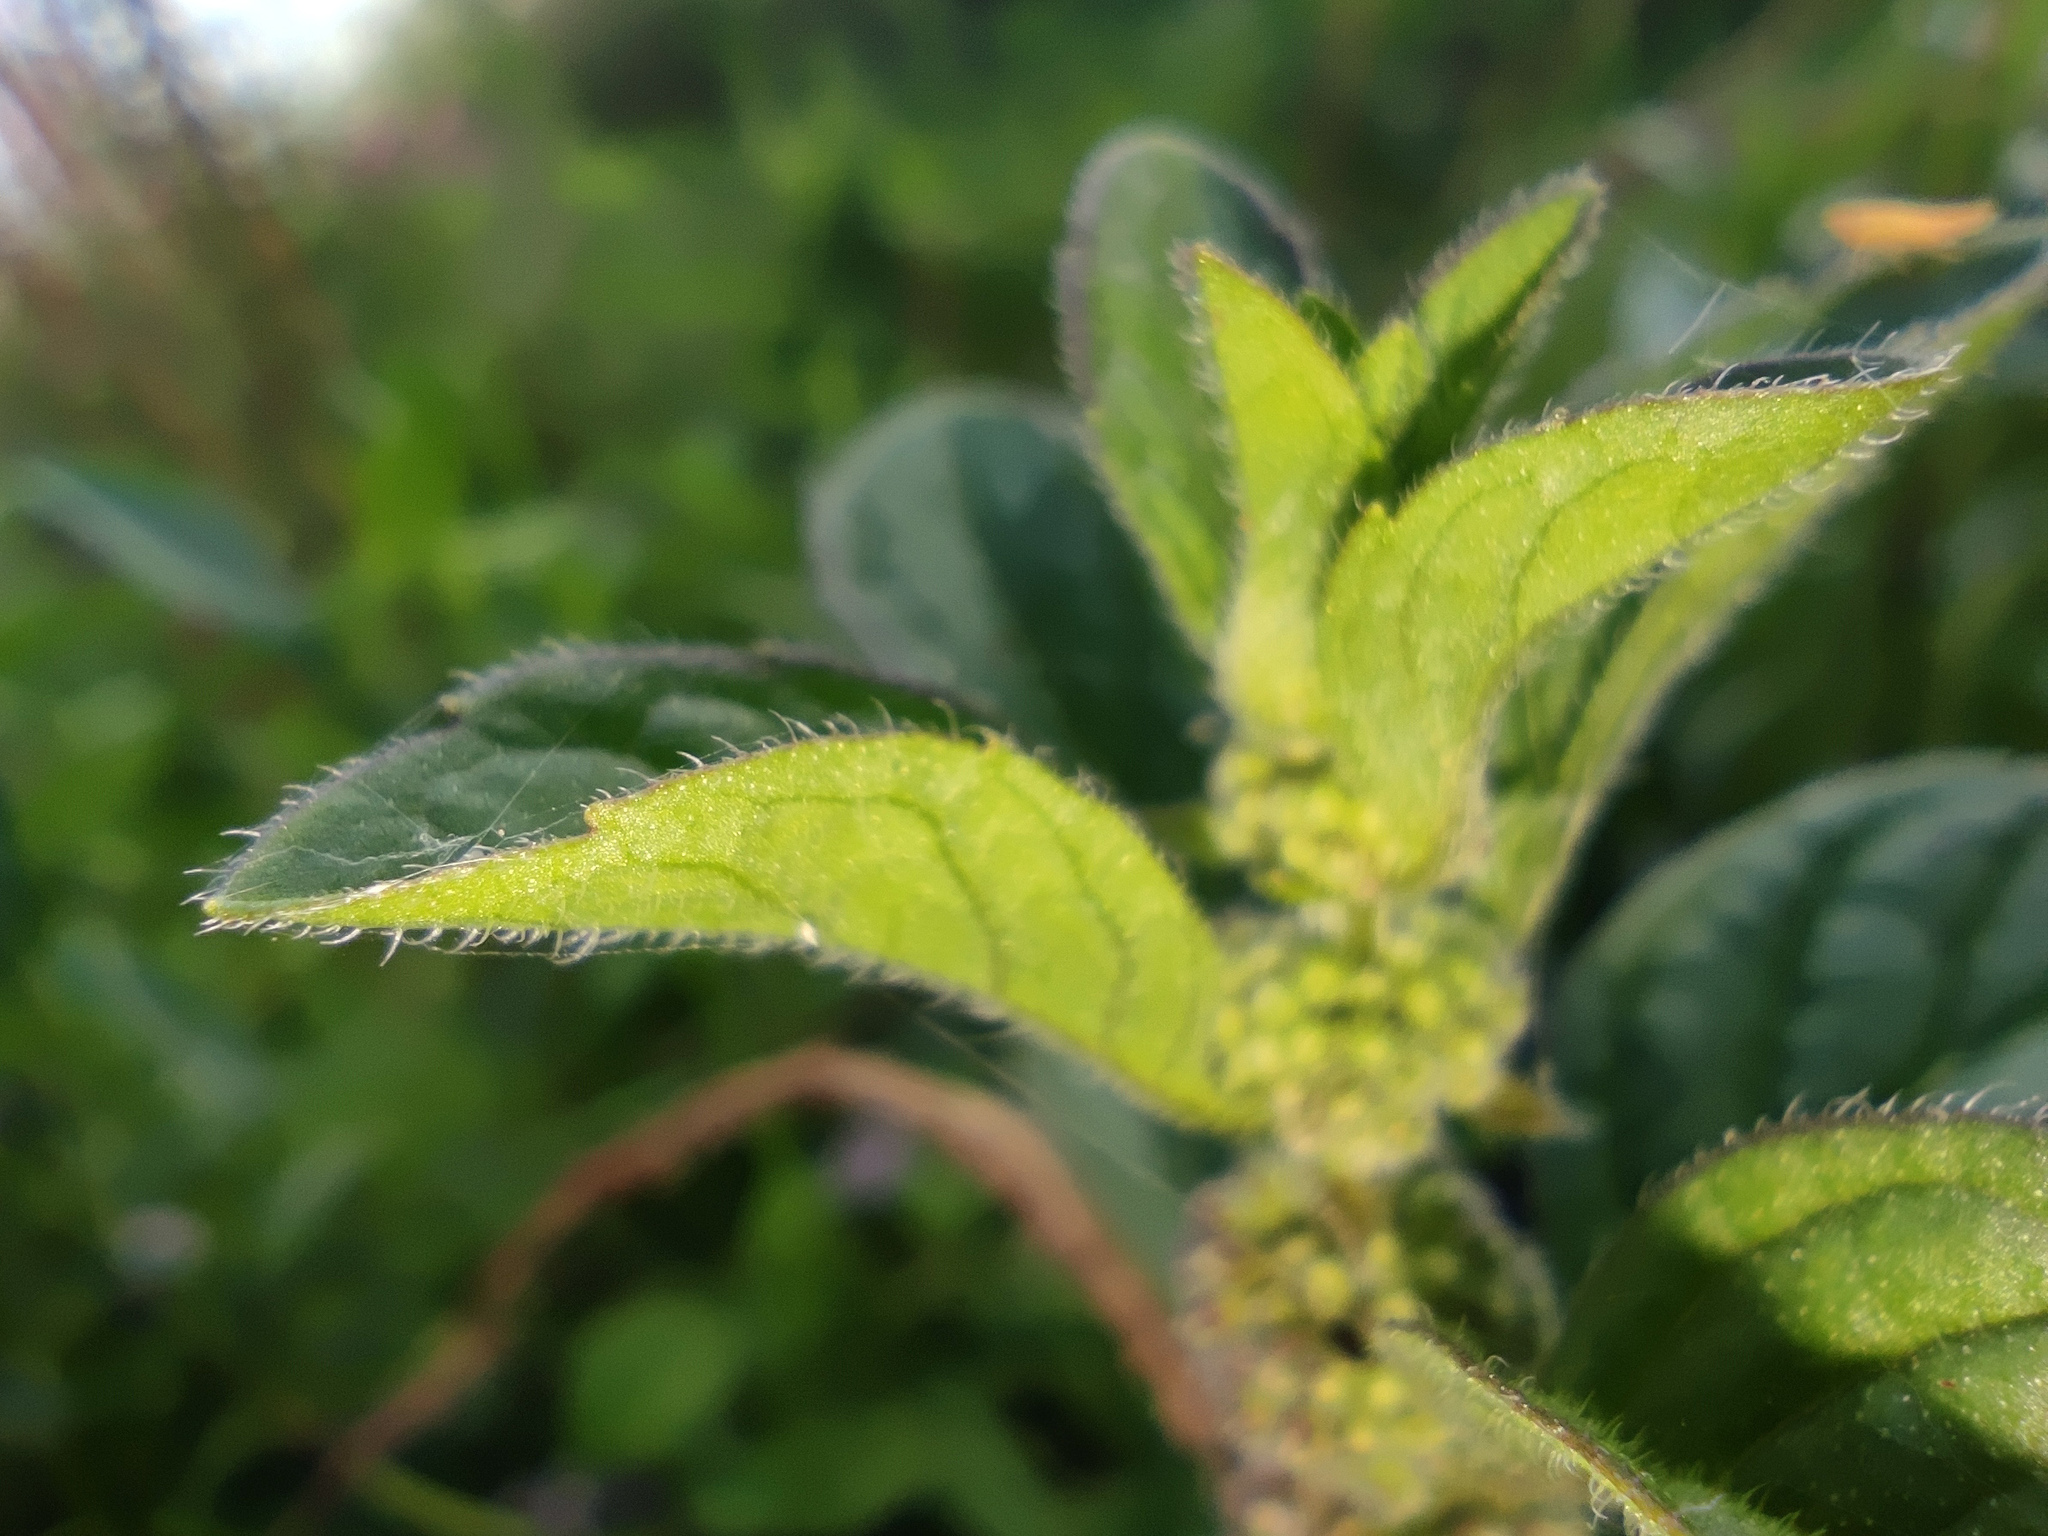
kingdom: Plantae
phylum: Tracheophyta
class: Magnoliopsida
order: Lamiales
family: Lamiaceae
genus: Mentha
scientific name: Mentha arvensis
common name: Corn mint
